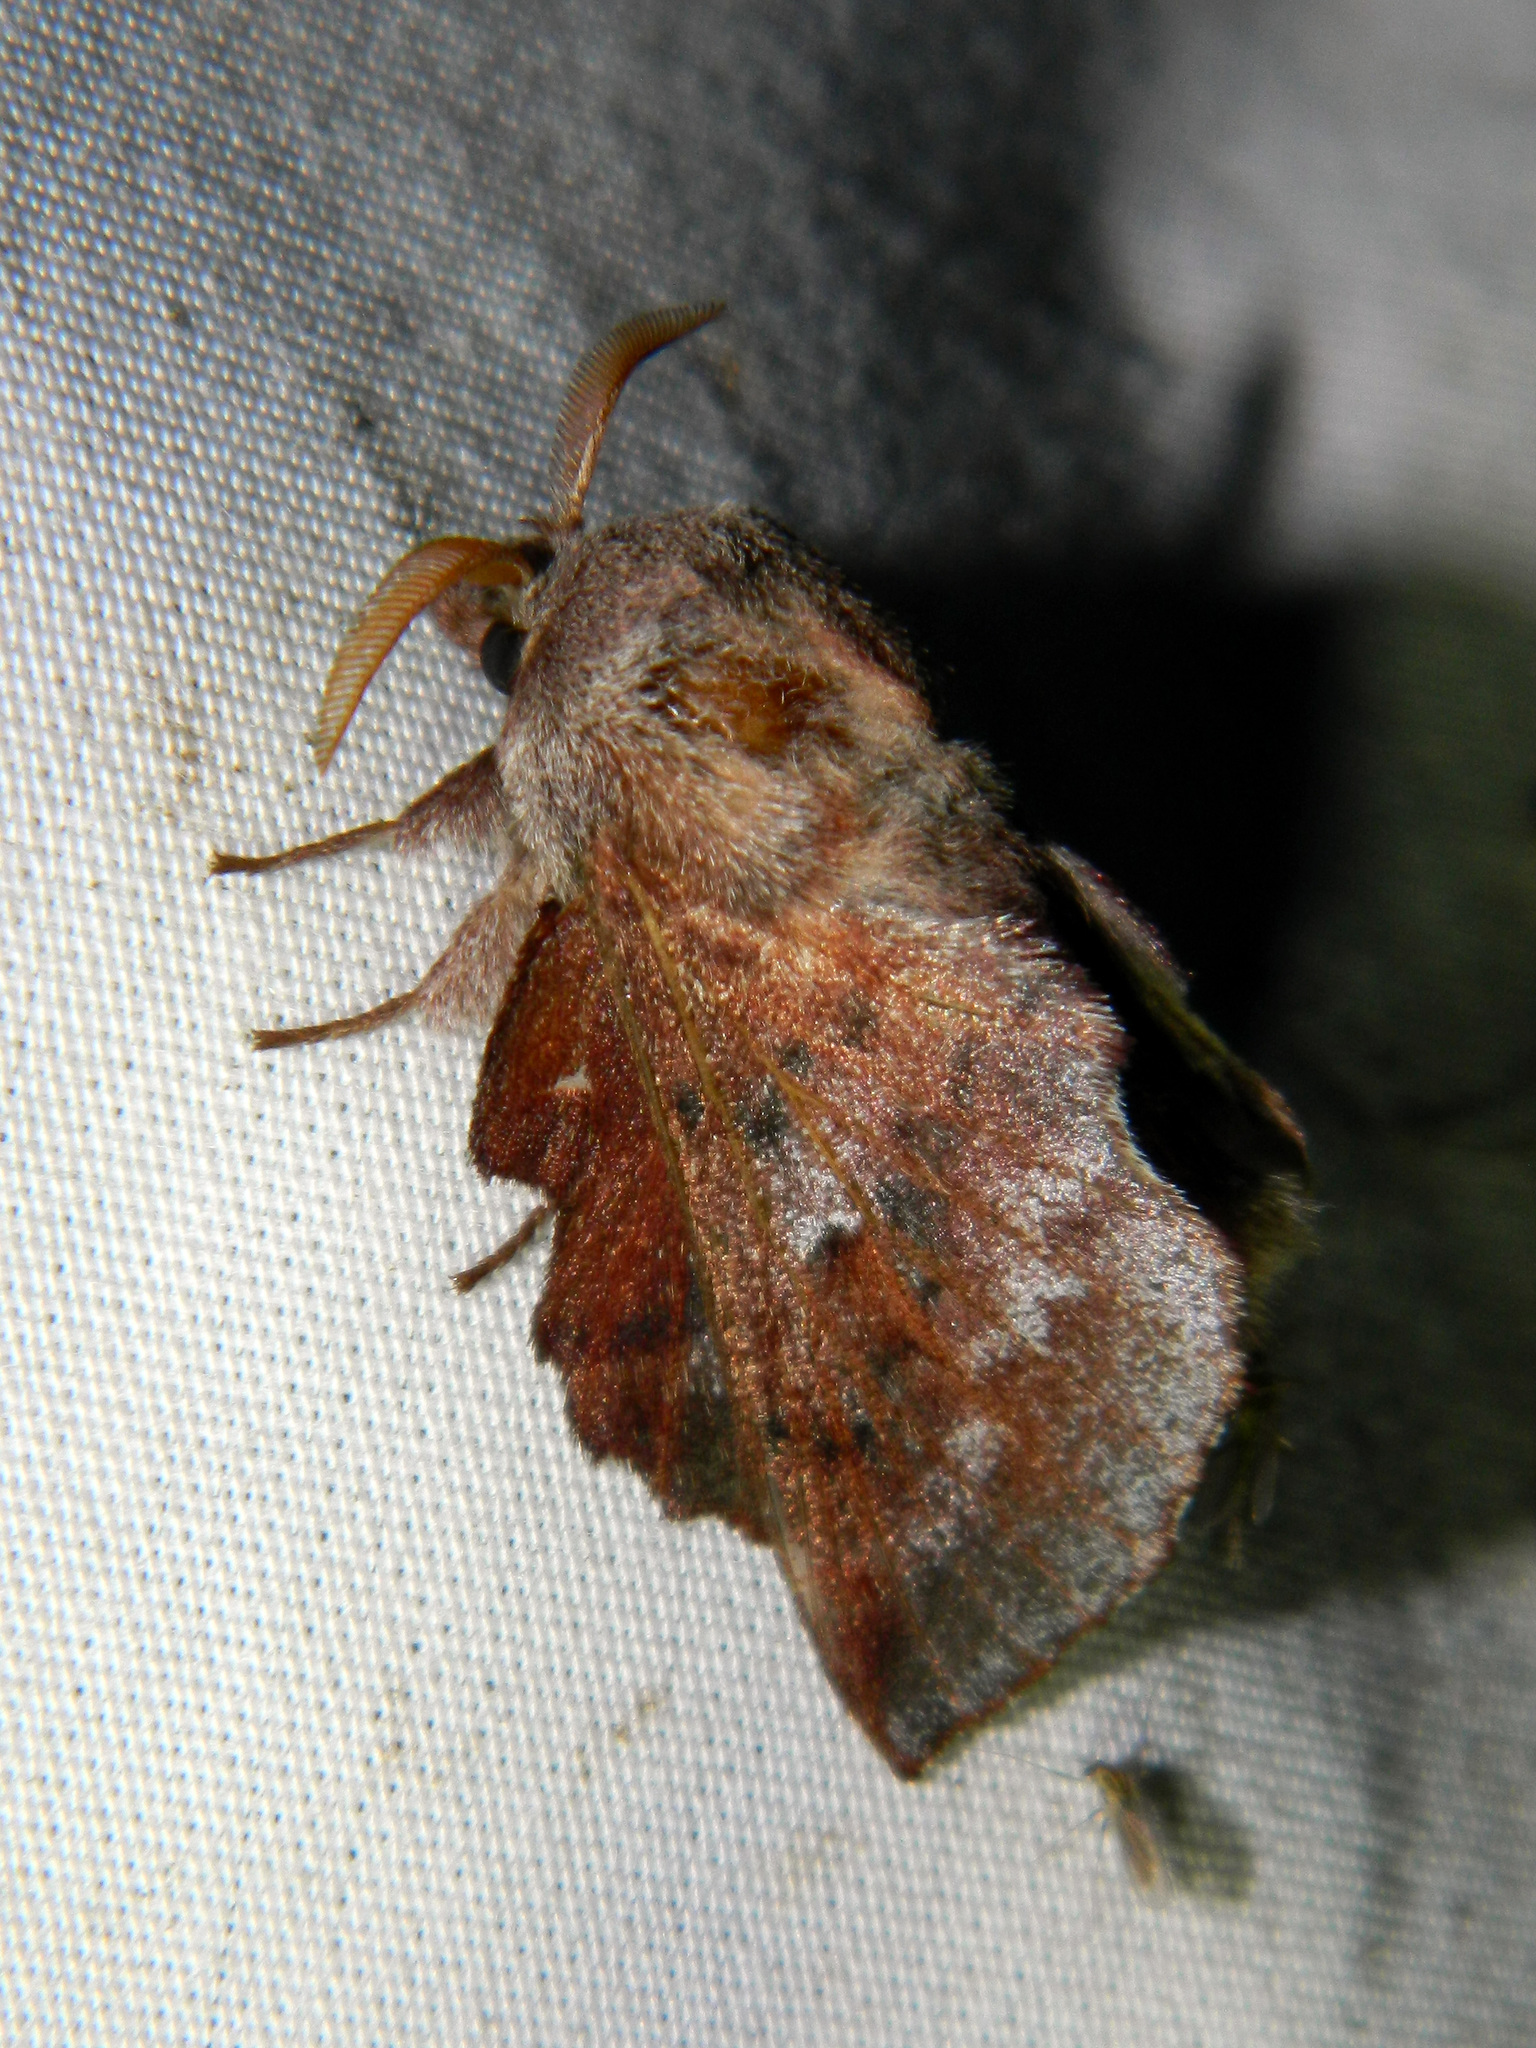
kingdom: Animalia
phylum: Arthropoda
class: Insecta
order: Lepidoptera
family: Lasiocampidae
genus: Phyllodesma
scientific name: Phyllodesma americana
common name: American lappet moth
